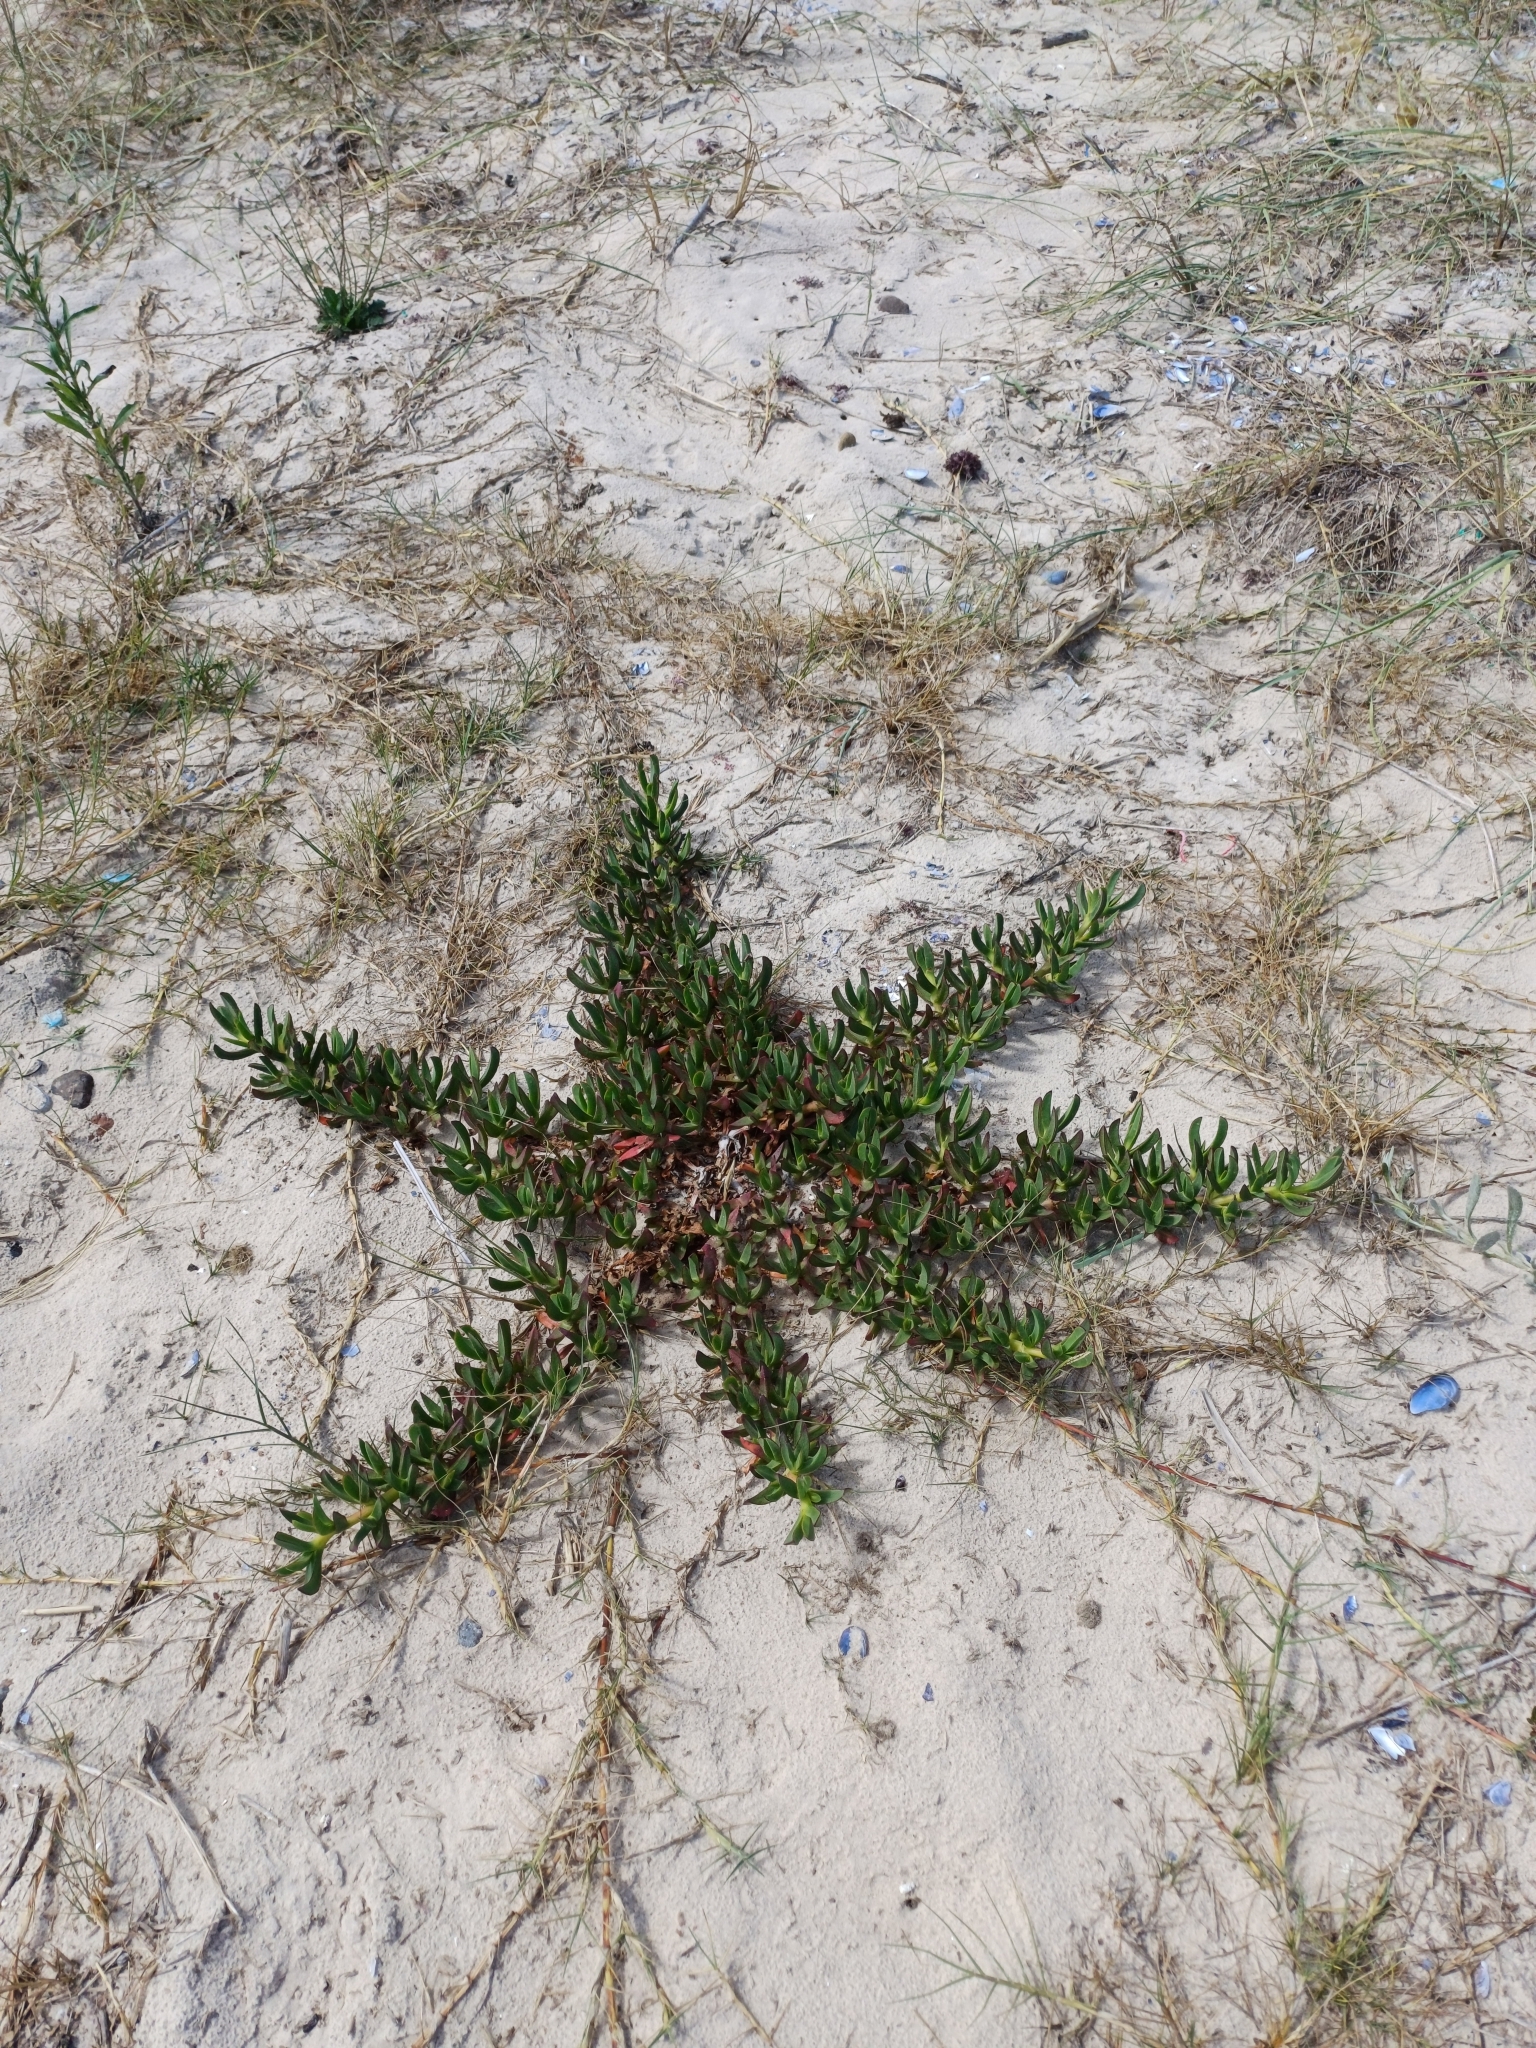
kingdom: Plantae
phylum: Tracheophyta
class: Magnoliopsida
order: Caryophyllales
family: Aizoaceae
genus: Carpobrotus
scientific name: Carpobrotus edulis
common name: Hottentot-fig
